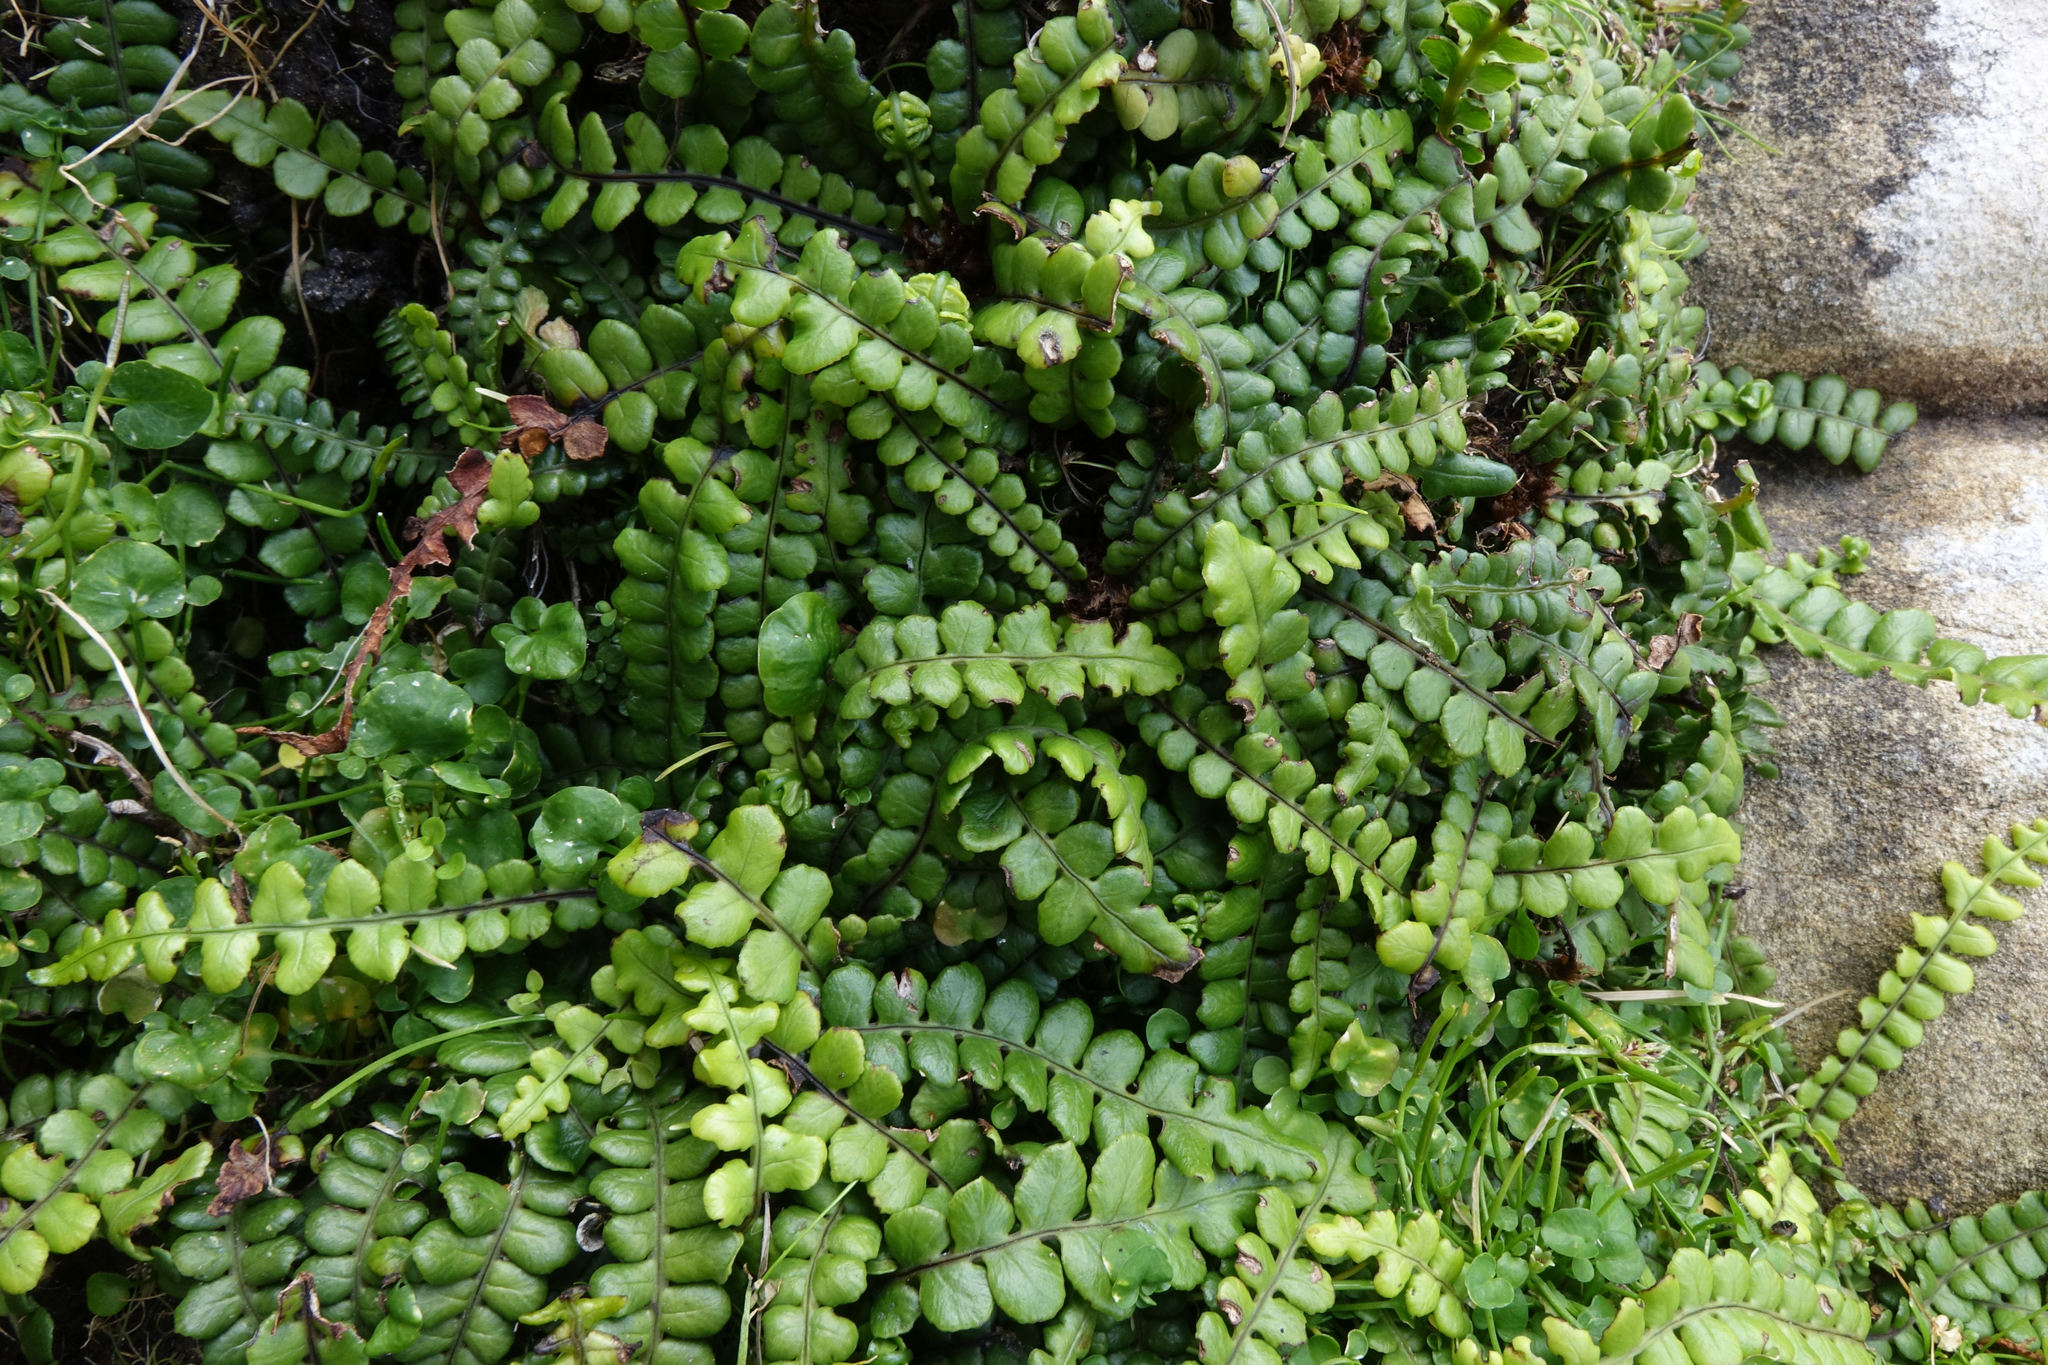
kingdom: Plantae
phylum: Tracheophyta
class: Polypodiopsida
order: Polypodiales
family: Blechnaceae
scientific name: Blechnaceae
